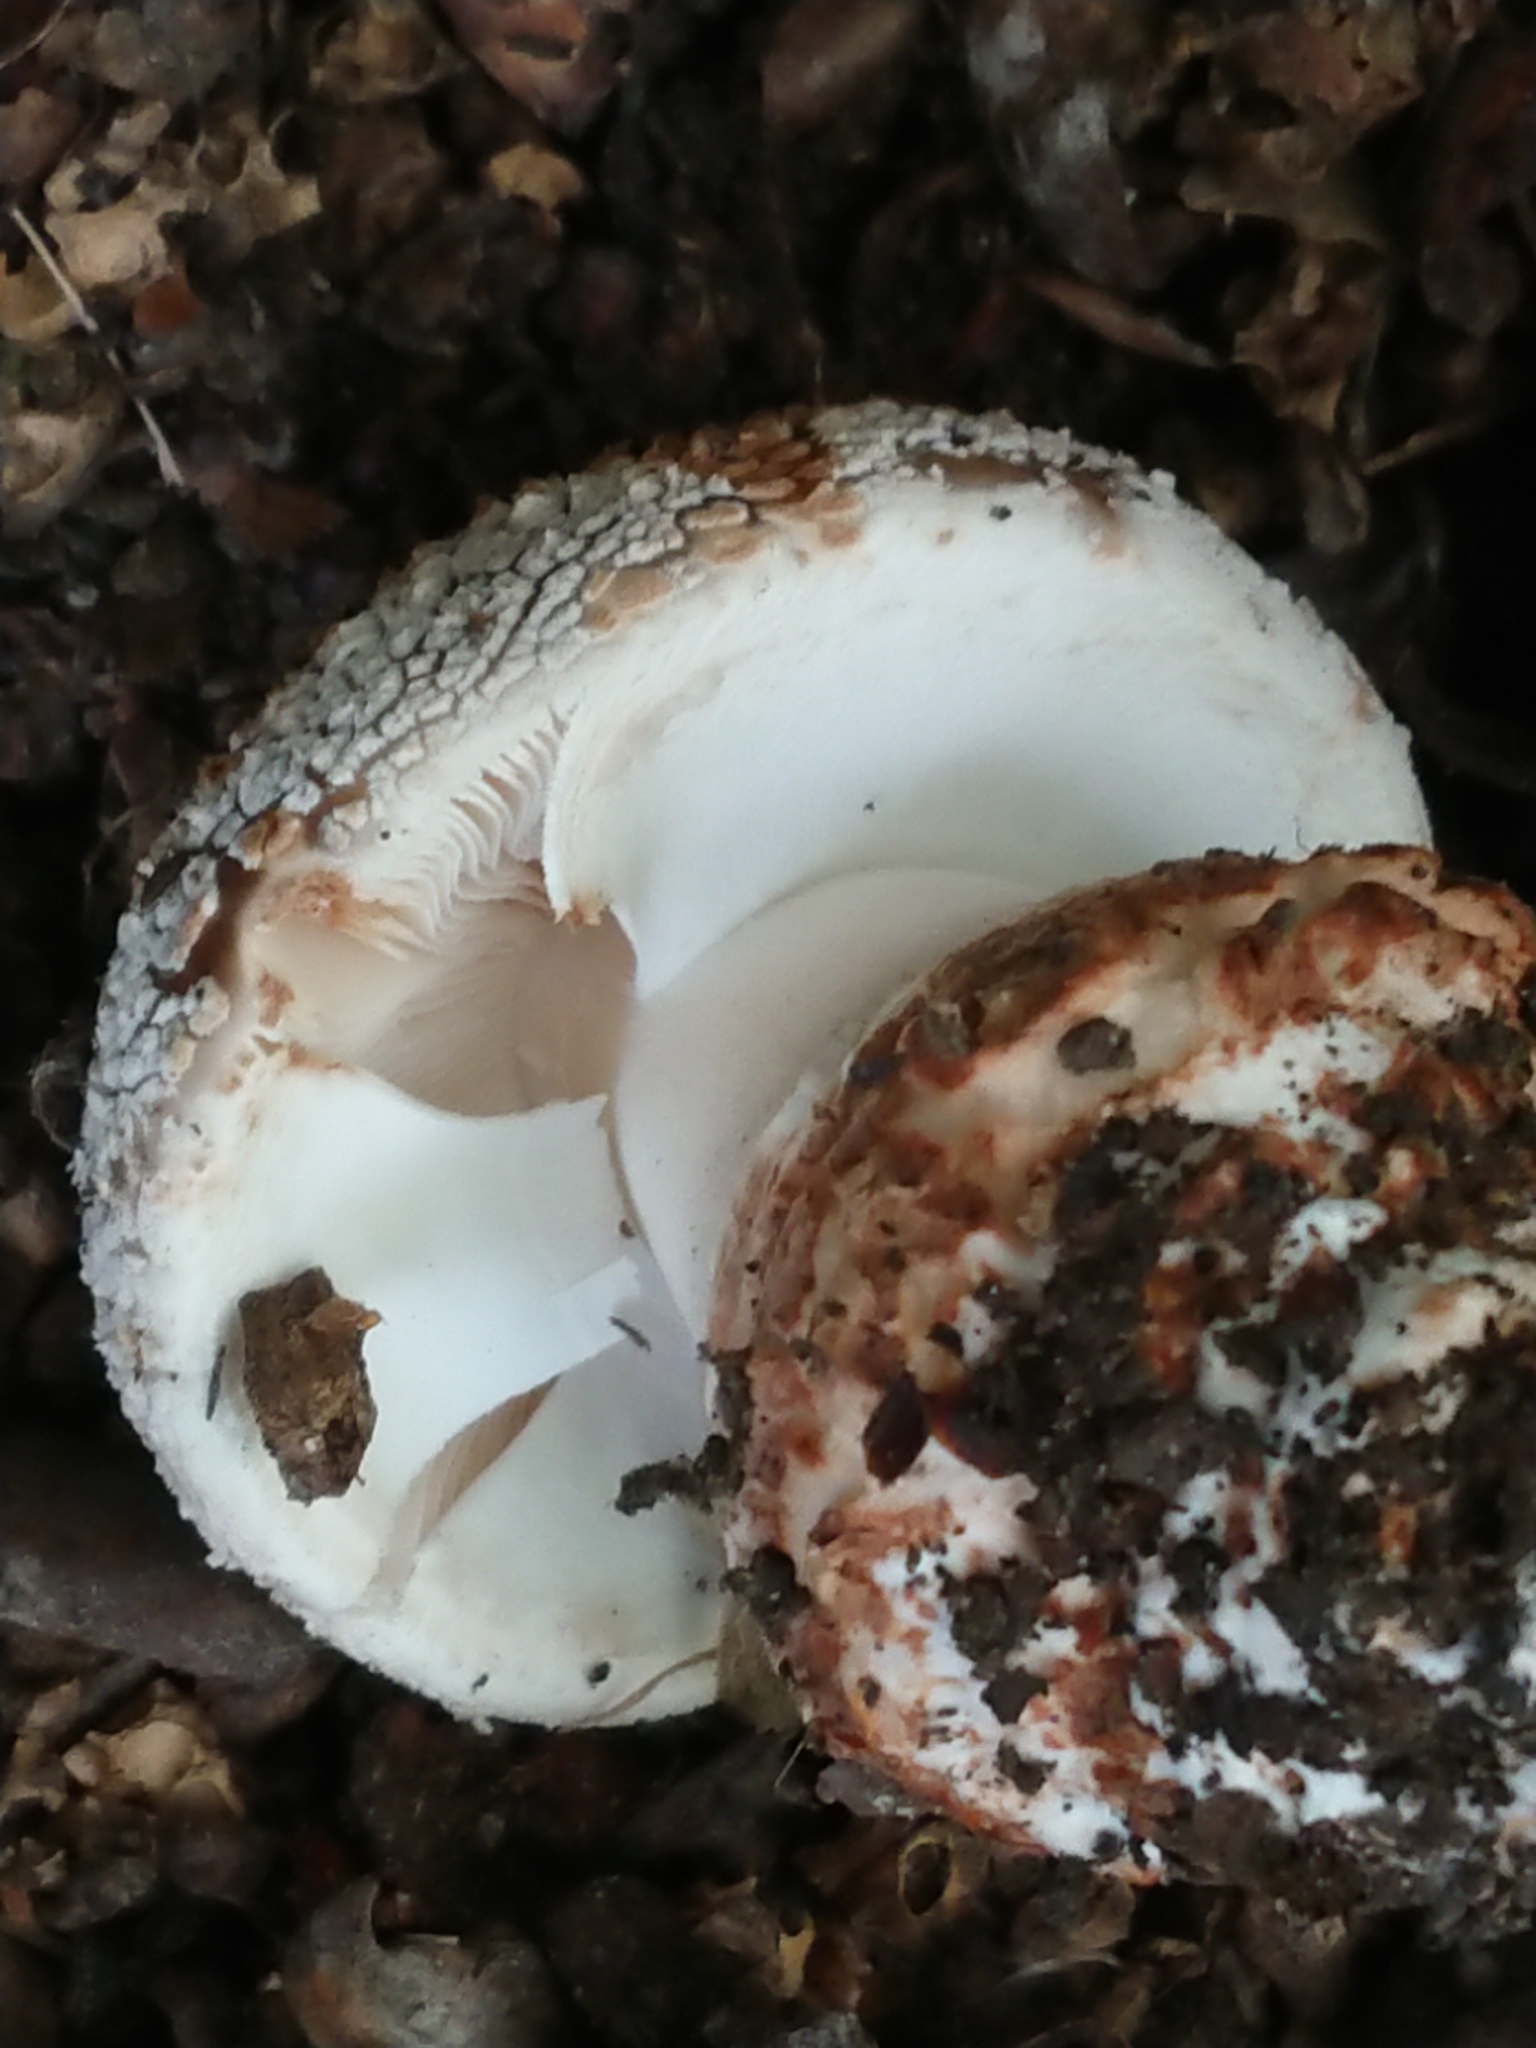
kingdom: Fungi
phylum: Basidiomycota
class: Agaricomycetes
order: Agaricales
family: Amanitaceae
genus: Amanita
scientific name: Amanita excelsa
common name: European false blusher
